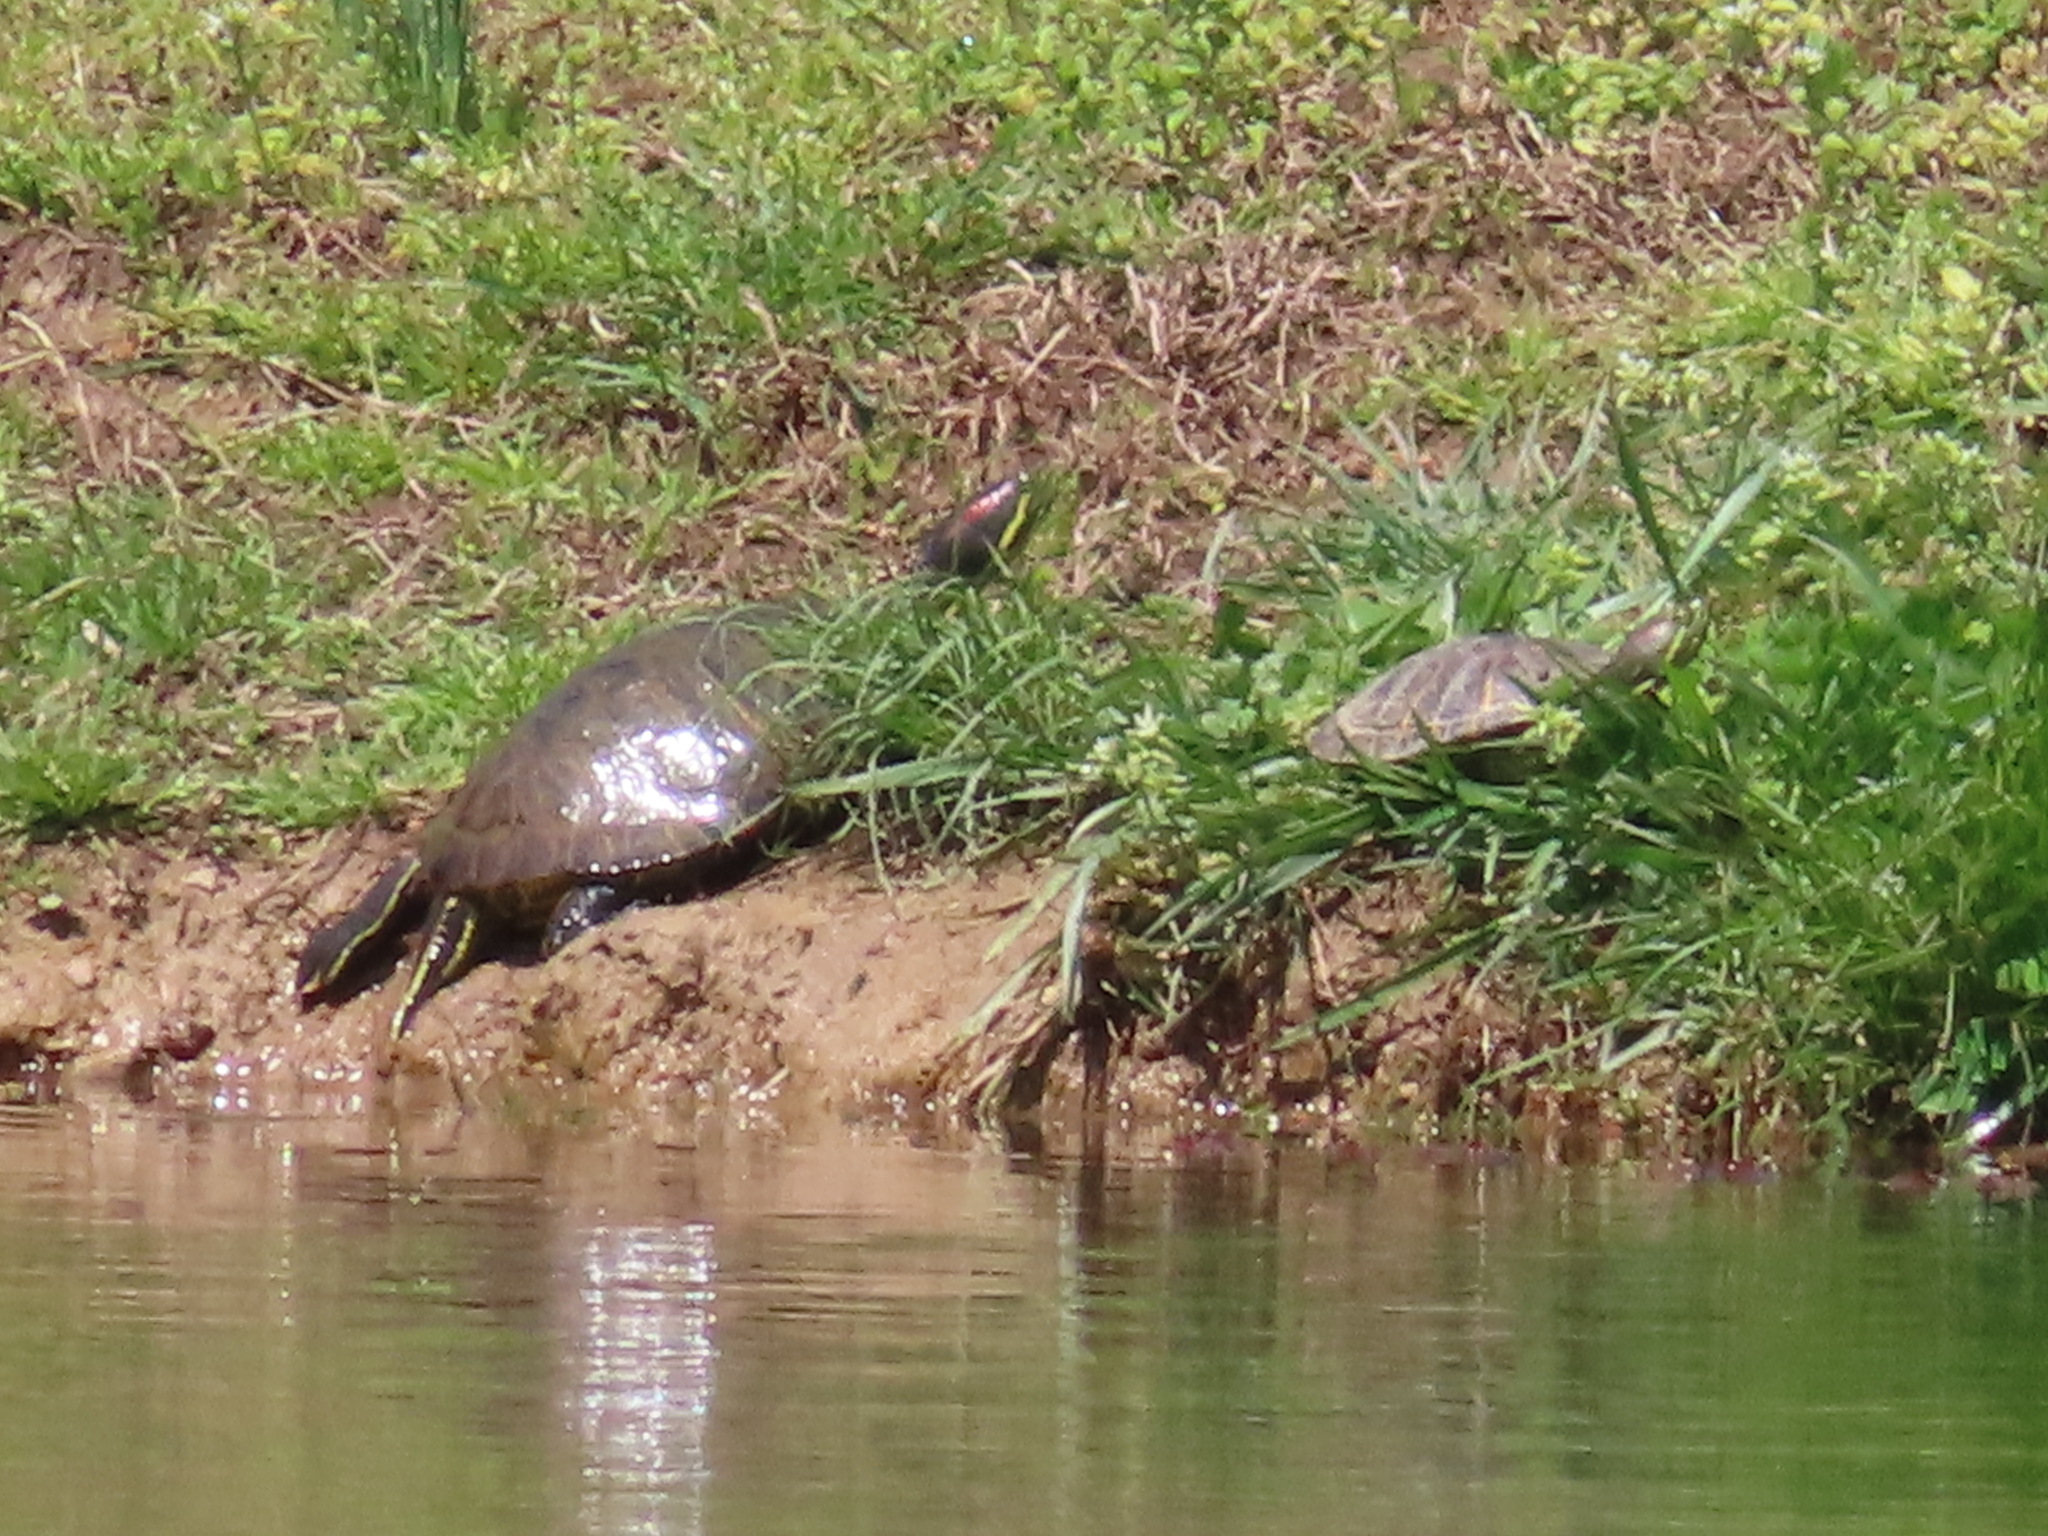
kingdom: Animalia
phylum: Chordata
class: Testudines
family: Emydidae
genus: Trachemys
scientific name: Trachemys scripta
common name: Slider
